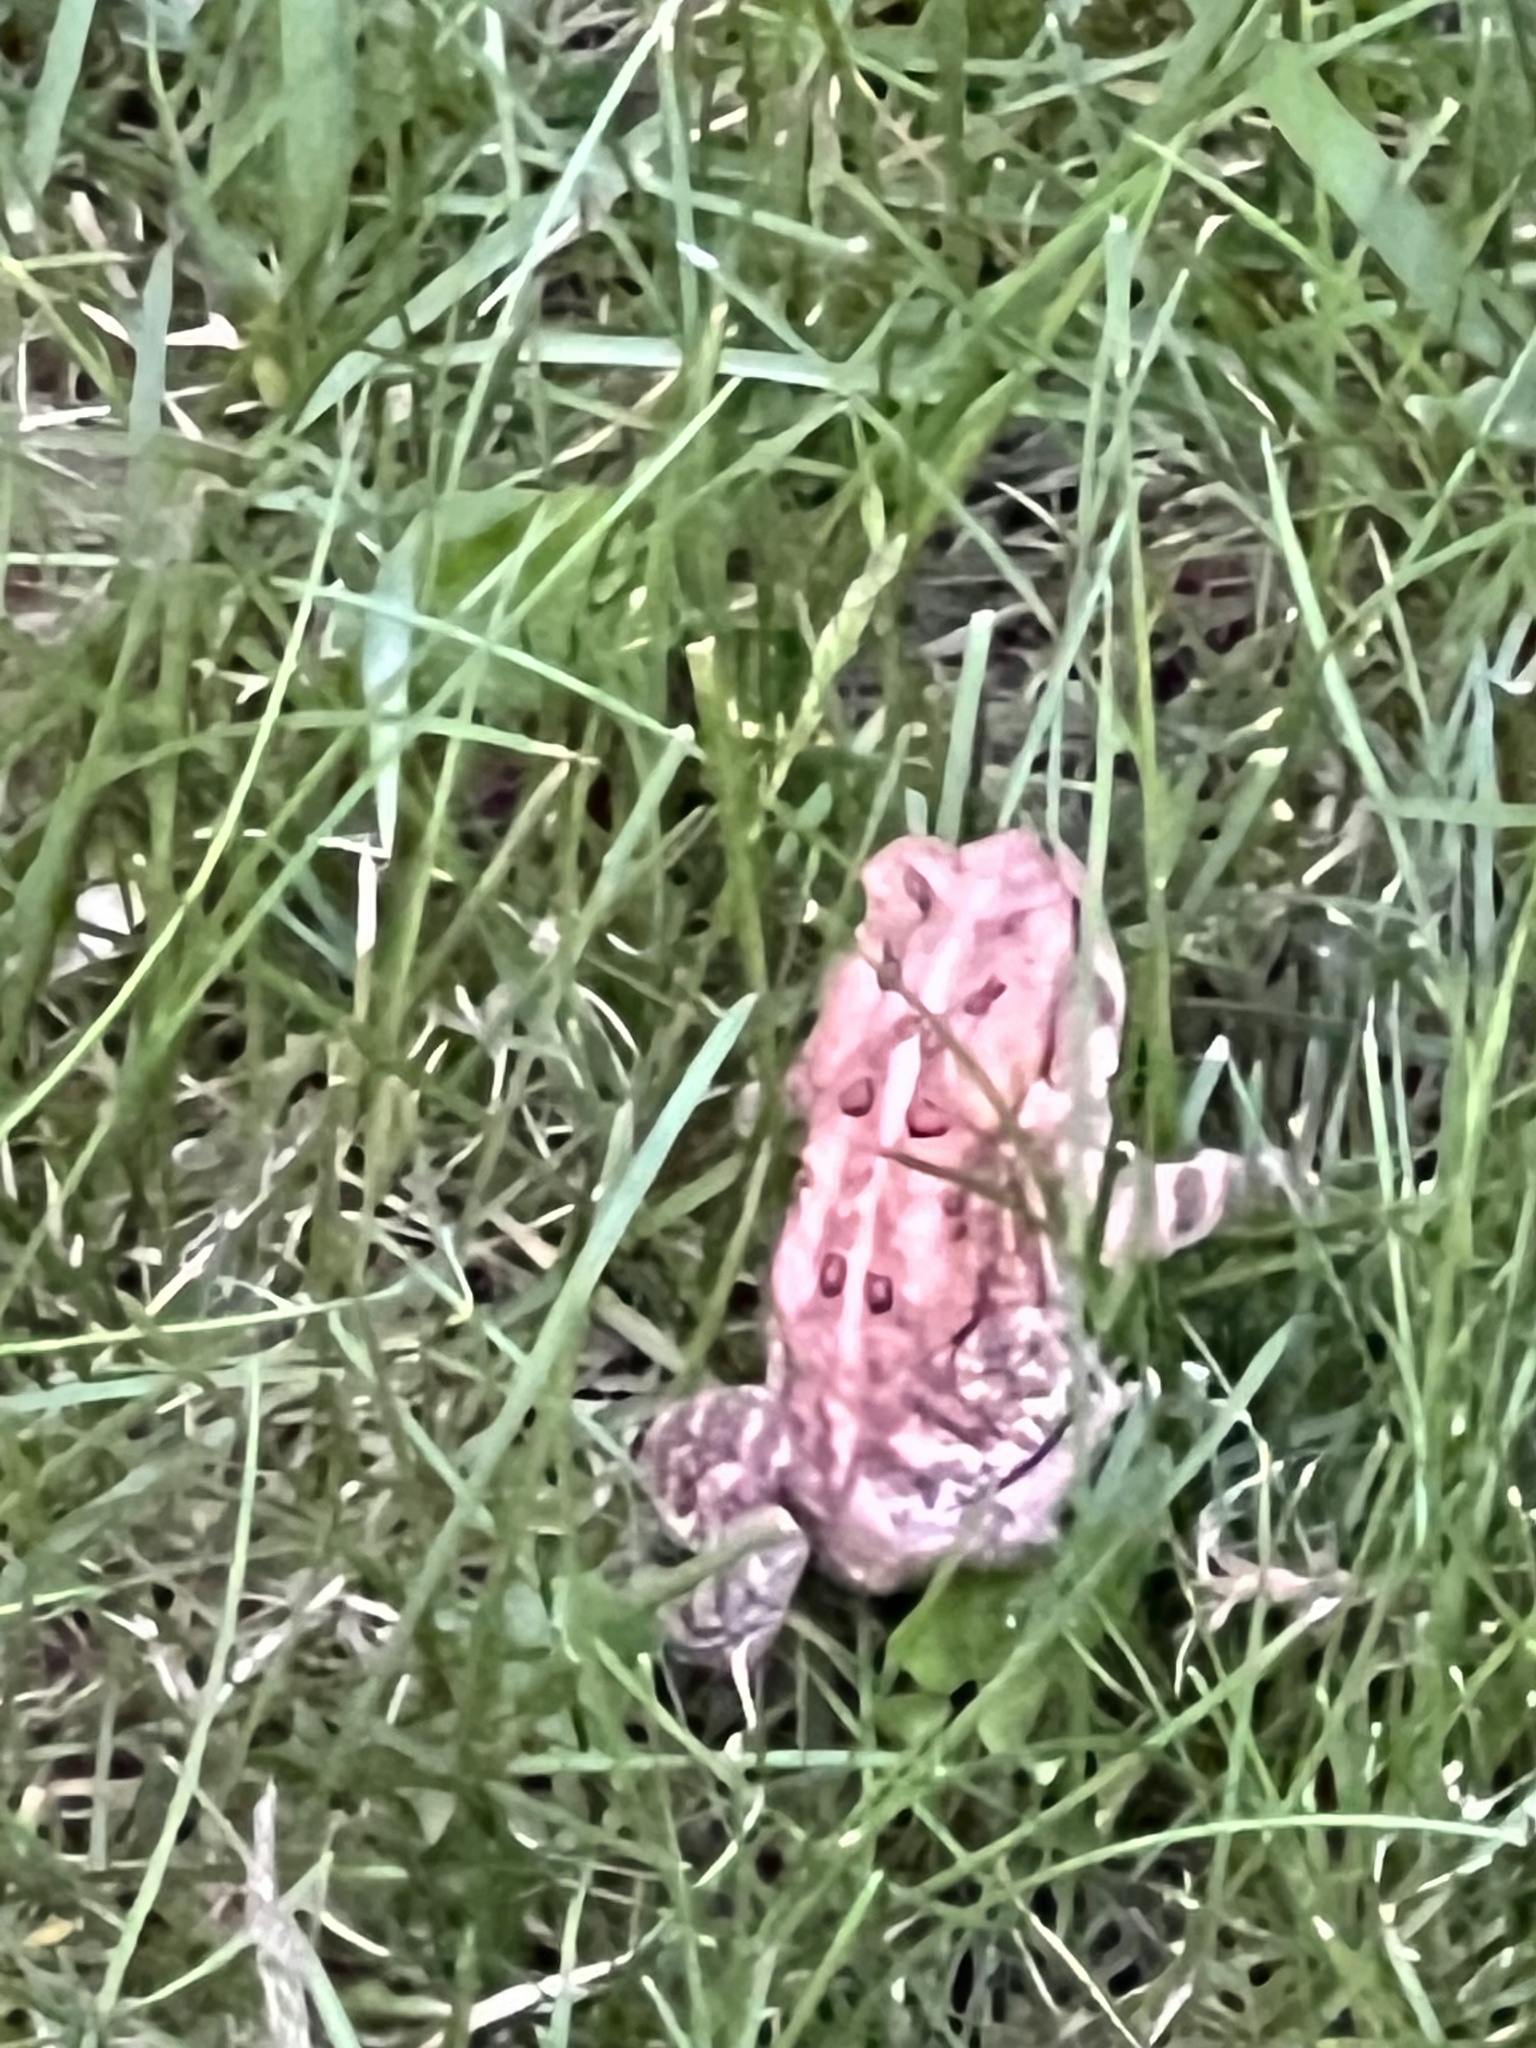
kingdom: Animalia
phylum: Chordata
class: Amphibia
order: Anura
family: Bufonidae
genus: Anaxyrus
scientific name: Anaxyrus americanus
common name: American toad
